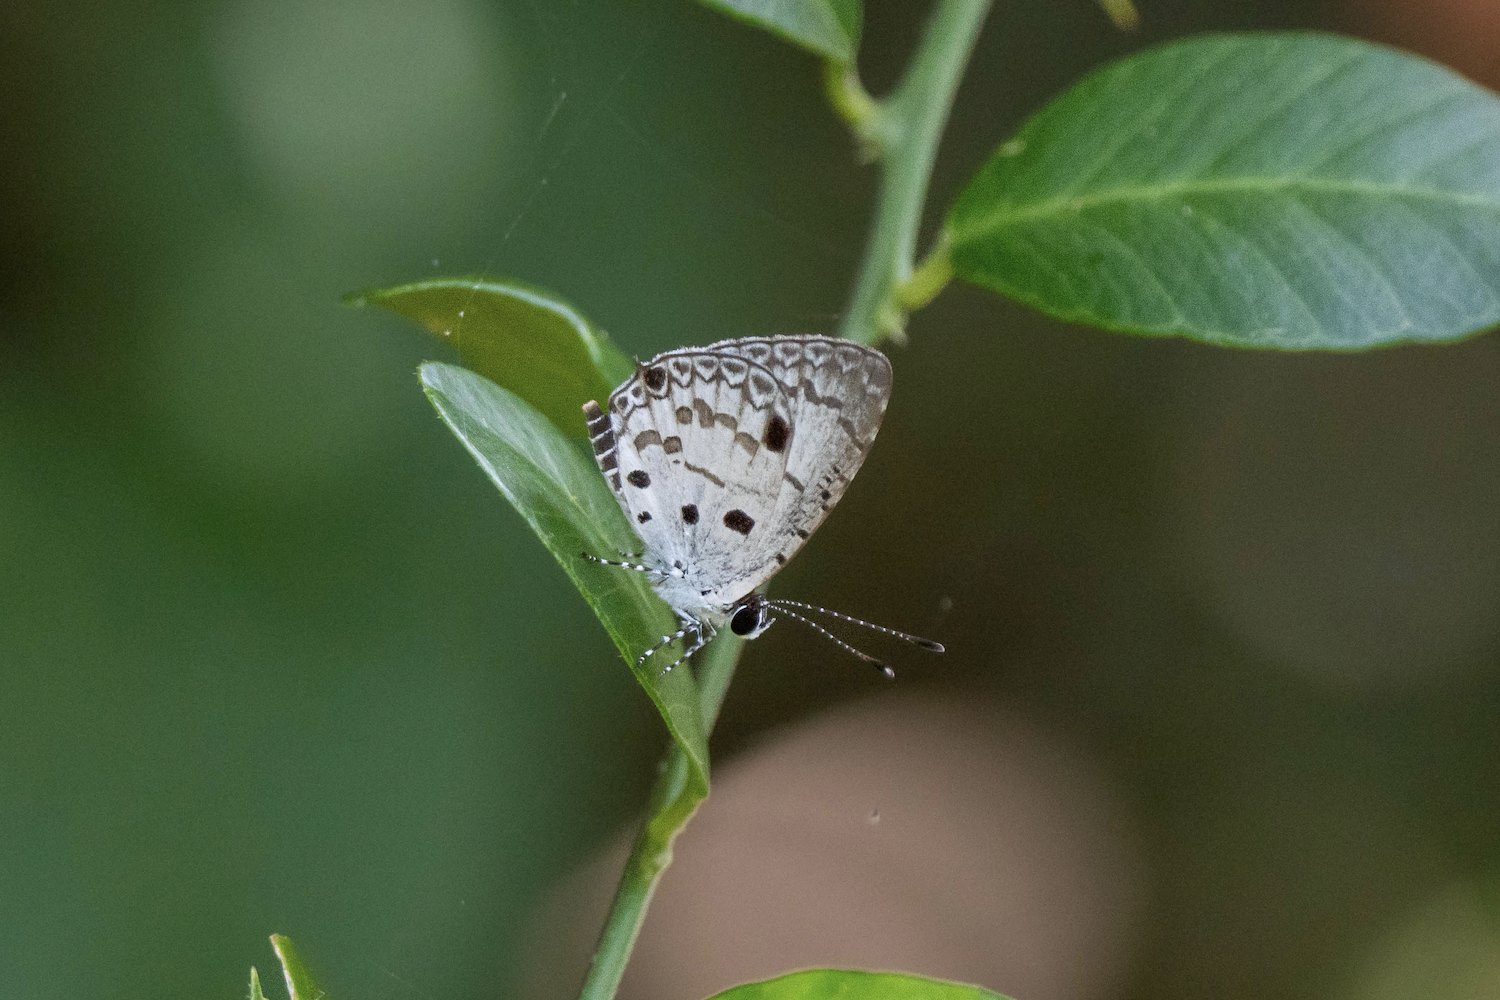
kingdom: Animalia
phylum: Arthropoda
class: Insecta
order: Lepidoptera
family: Lycaenidae
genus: Megisba
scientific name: Megisba malaya
